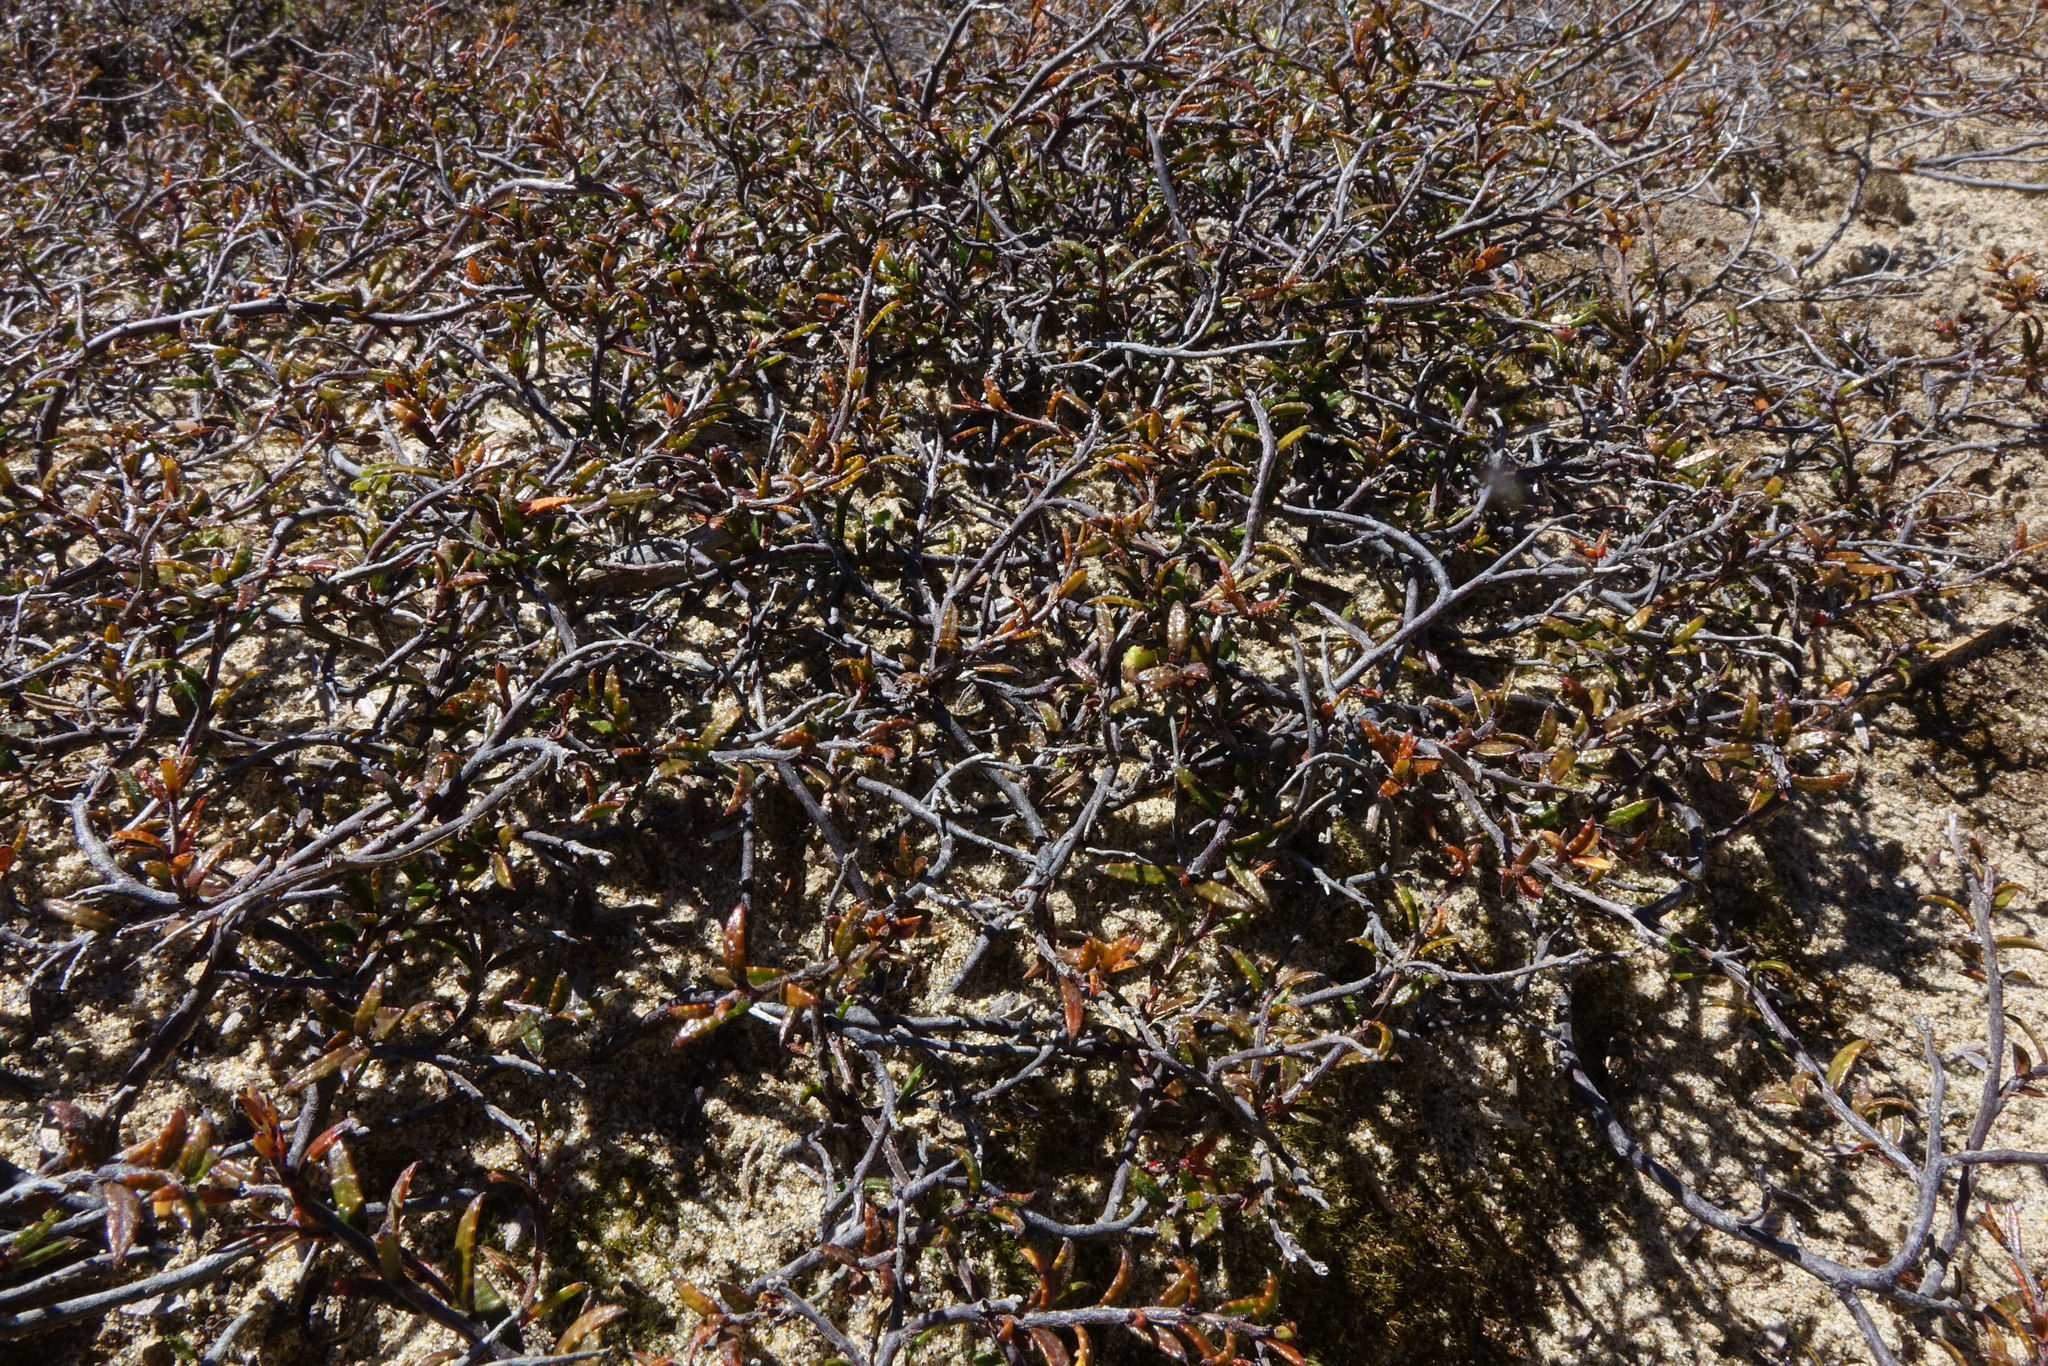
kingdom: Plantae
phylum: Tracheophyta
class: Magnoliopsida
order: Ericales
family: Ericaceae
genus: Gaultheria
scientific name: Gaultheria macrostigma
